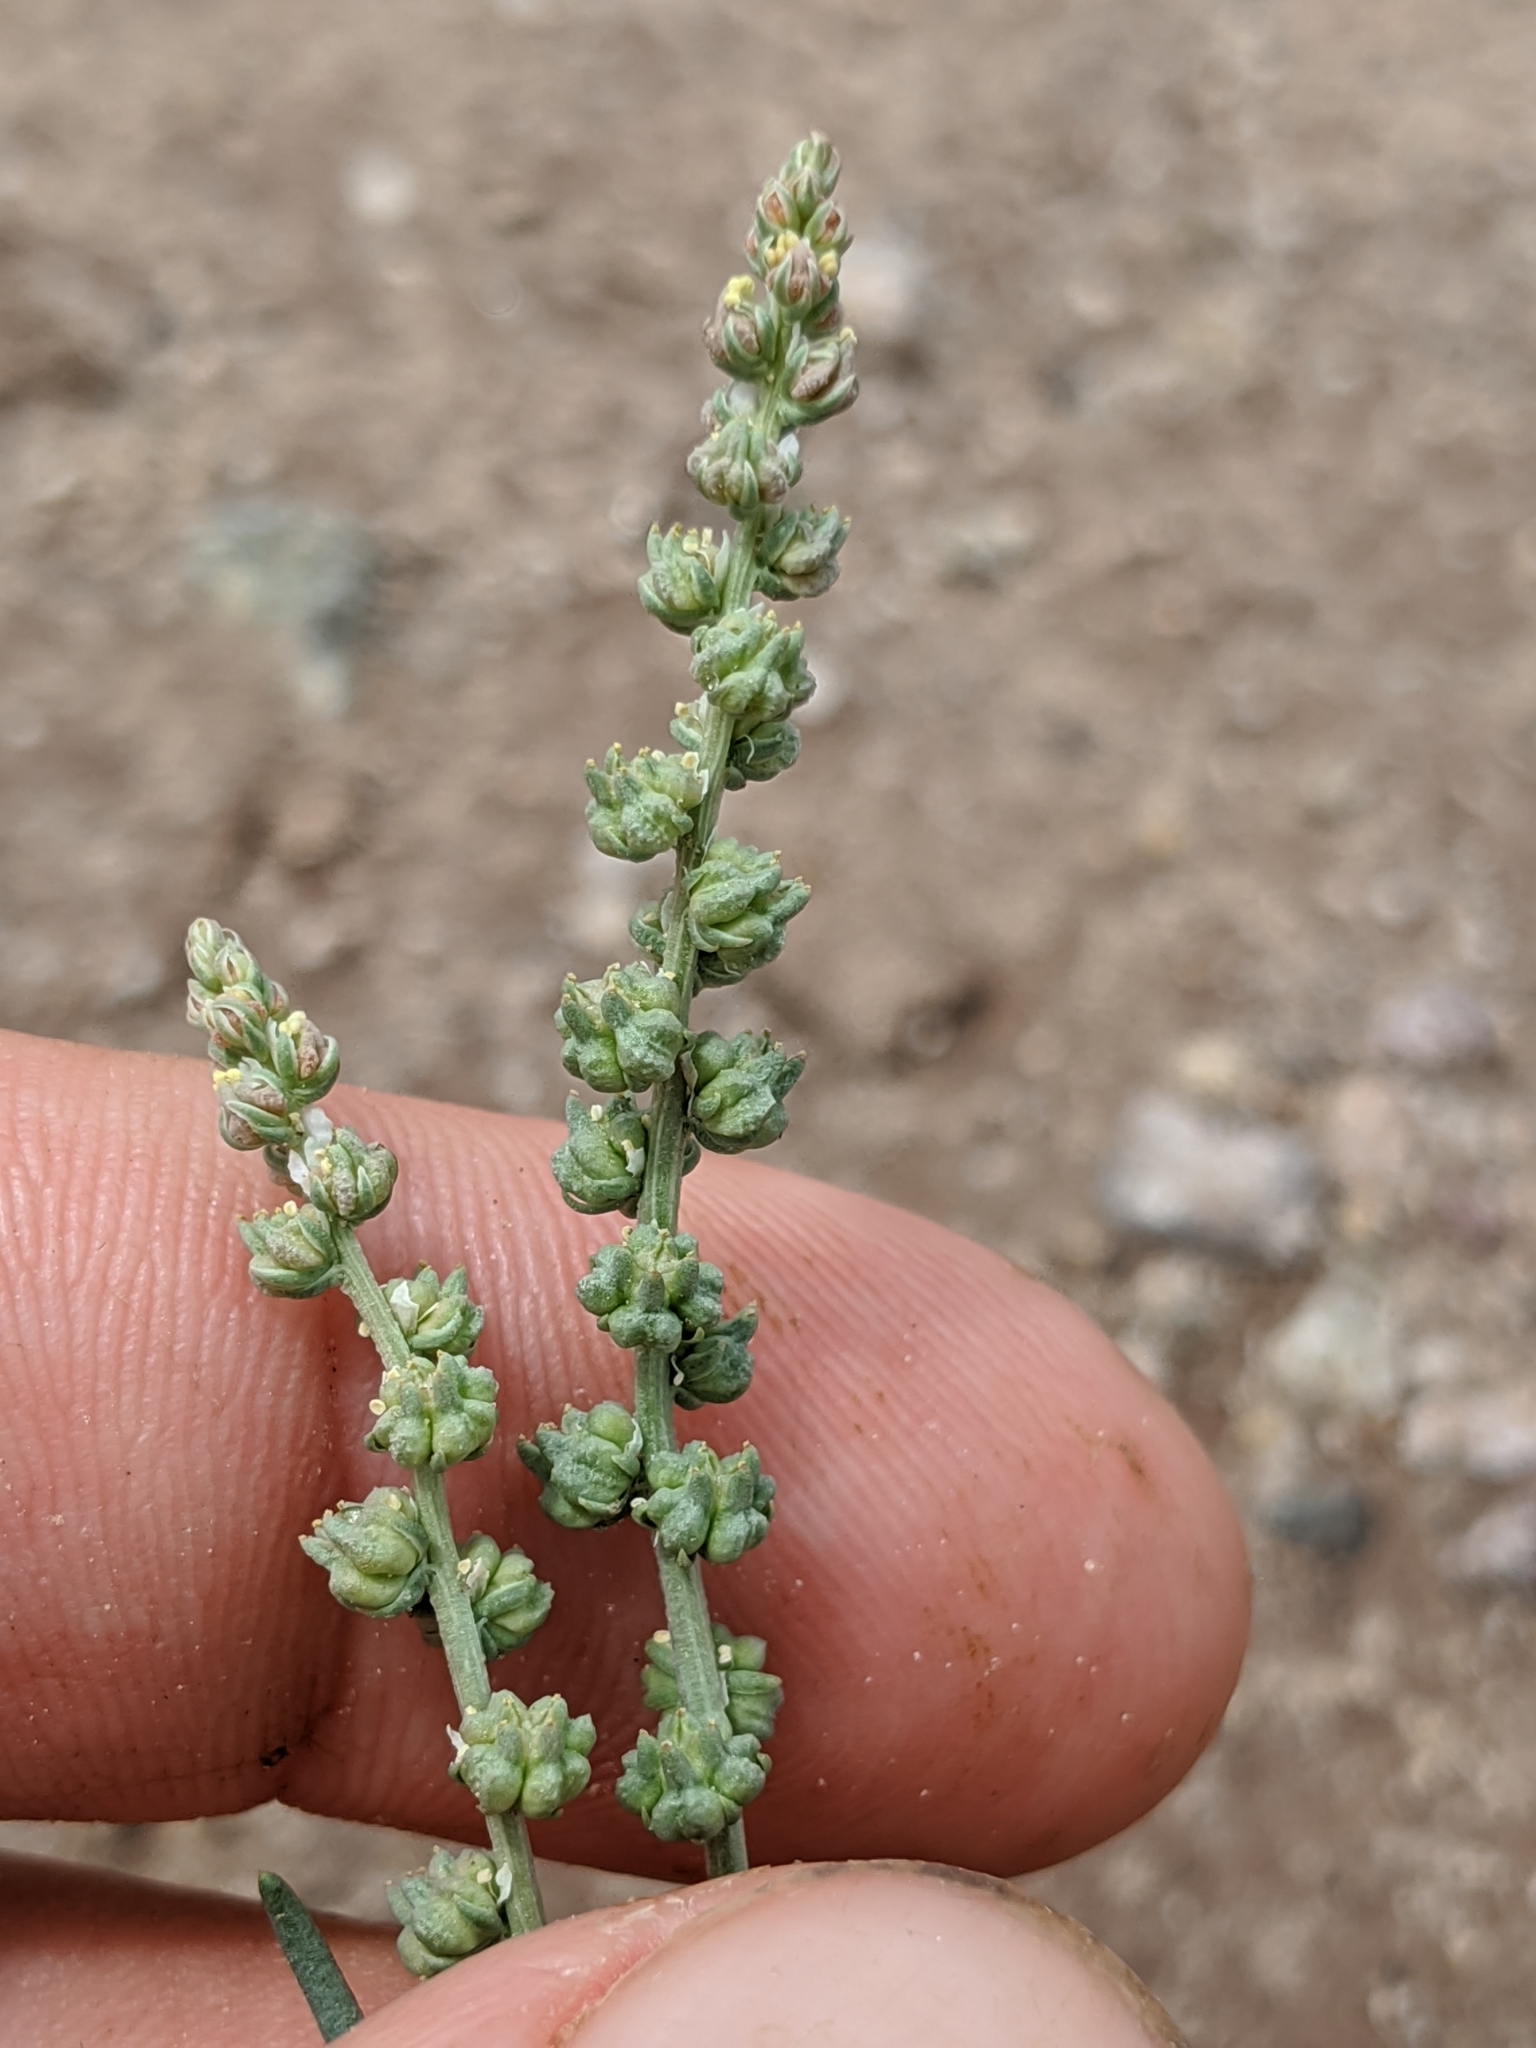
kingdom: Plantae
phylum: Tracheophyta
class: Magnoliopsida
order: Brassicales
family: Resedaceae
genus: Oligomeris
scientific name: Oligomeris linifolia
